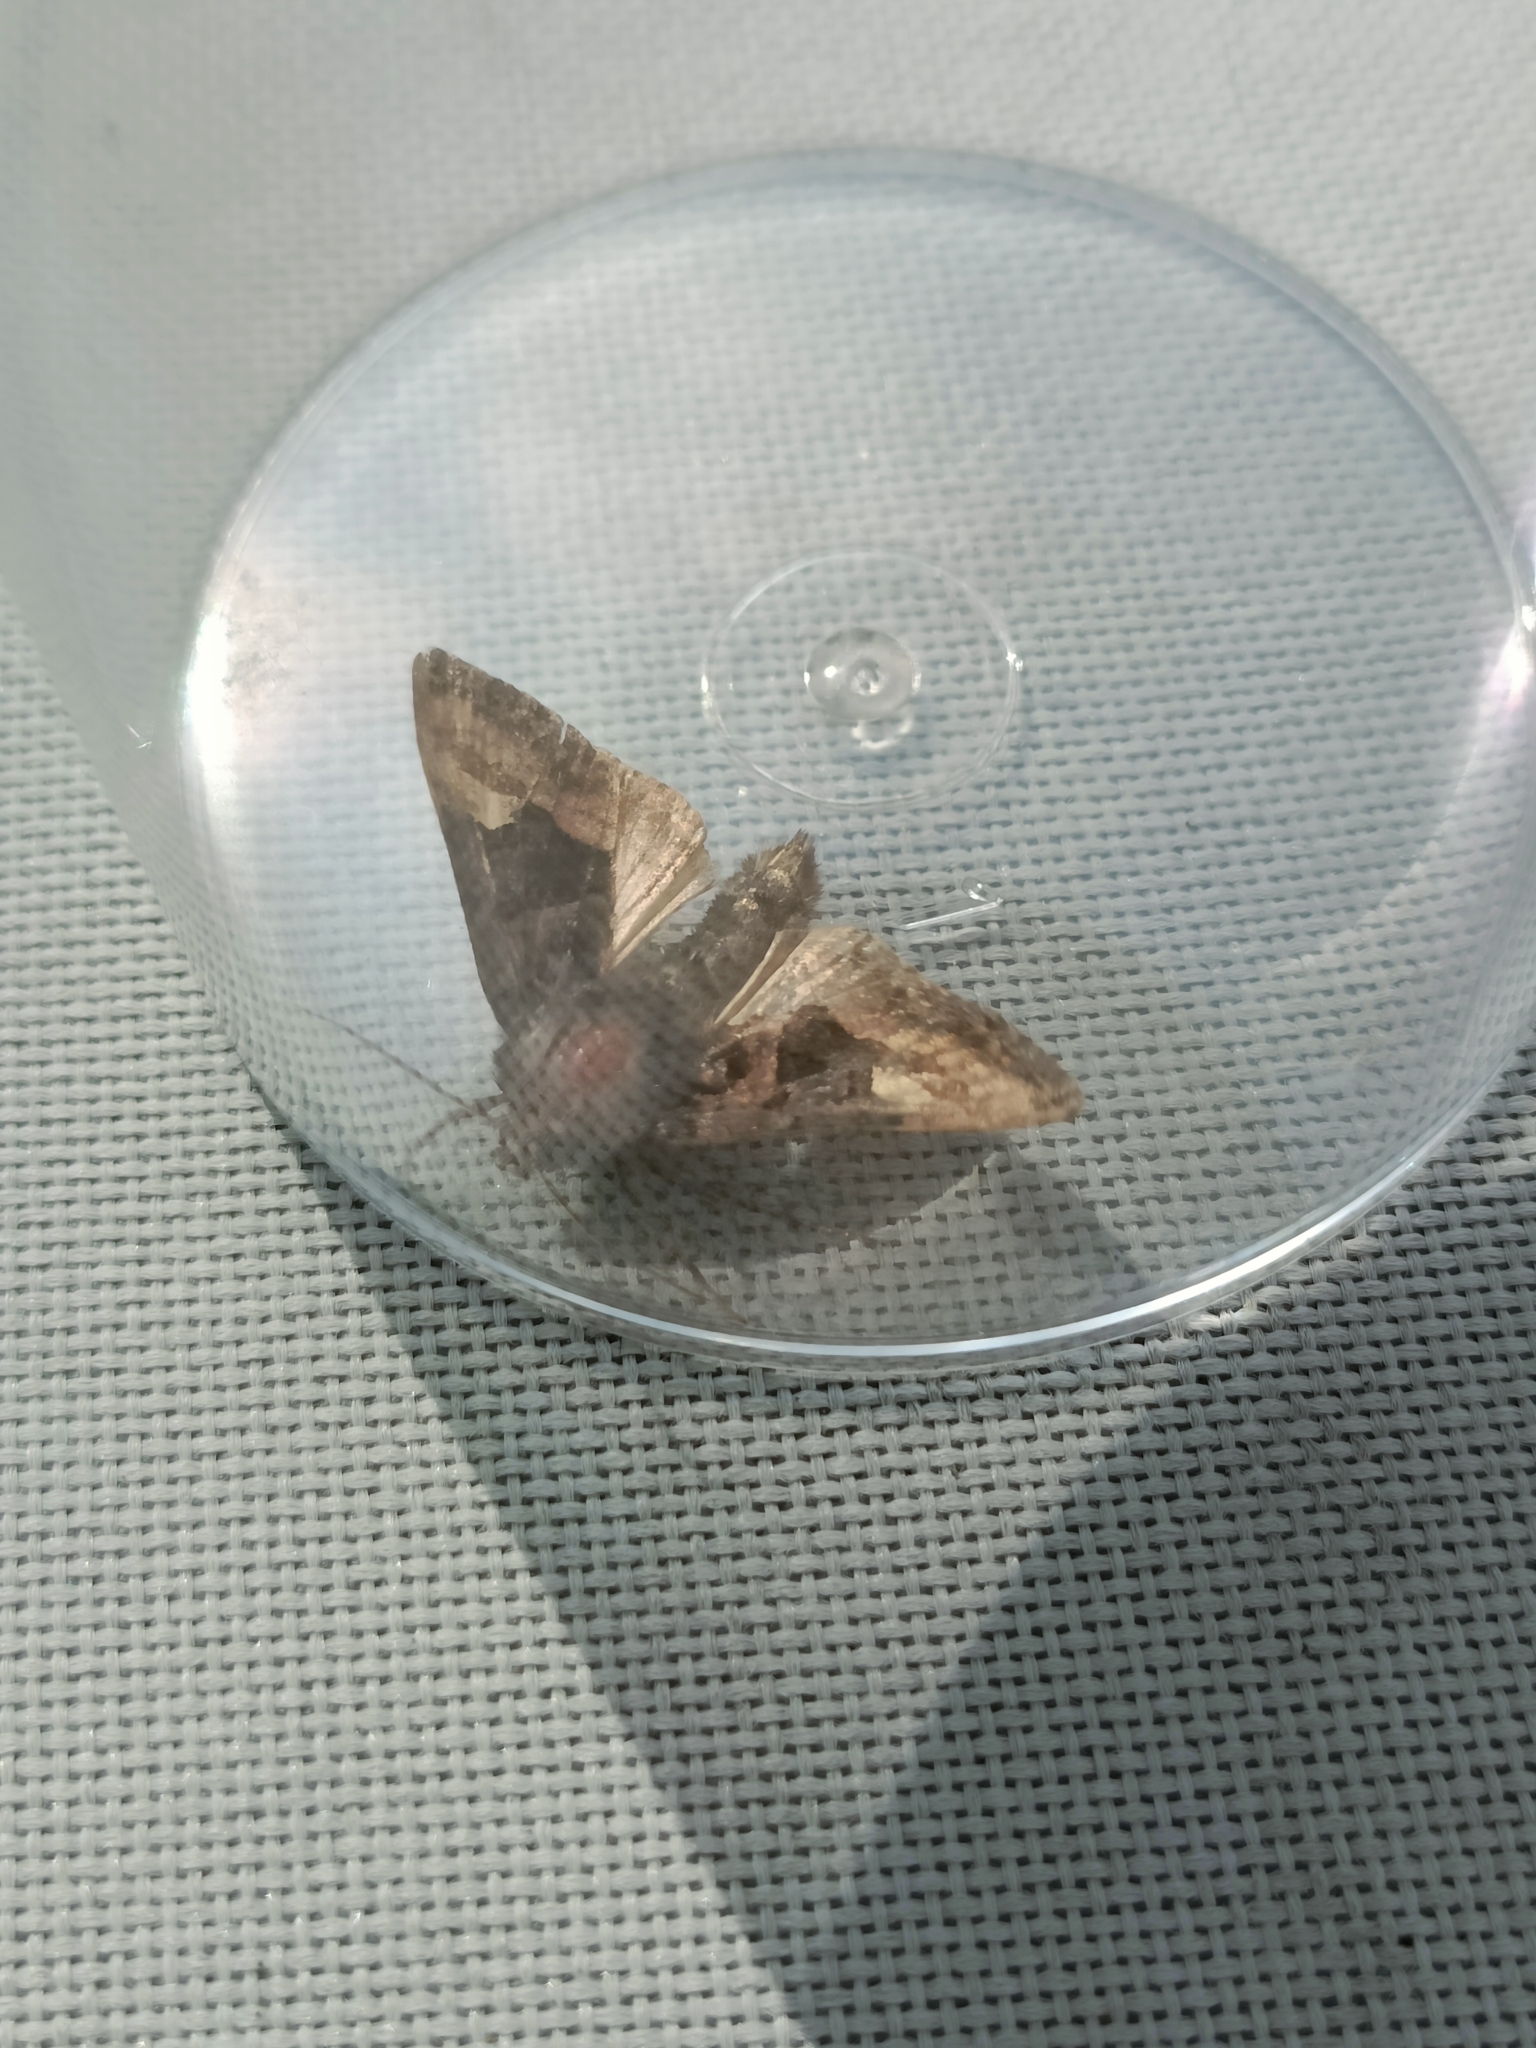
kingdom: Animalia
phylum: Arthropoda
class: Insecta
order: Lepidoptera
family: Noctuidae
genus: Euplexia
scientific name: Euplexia lucipara
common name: Small angle shades
